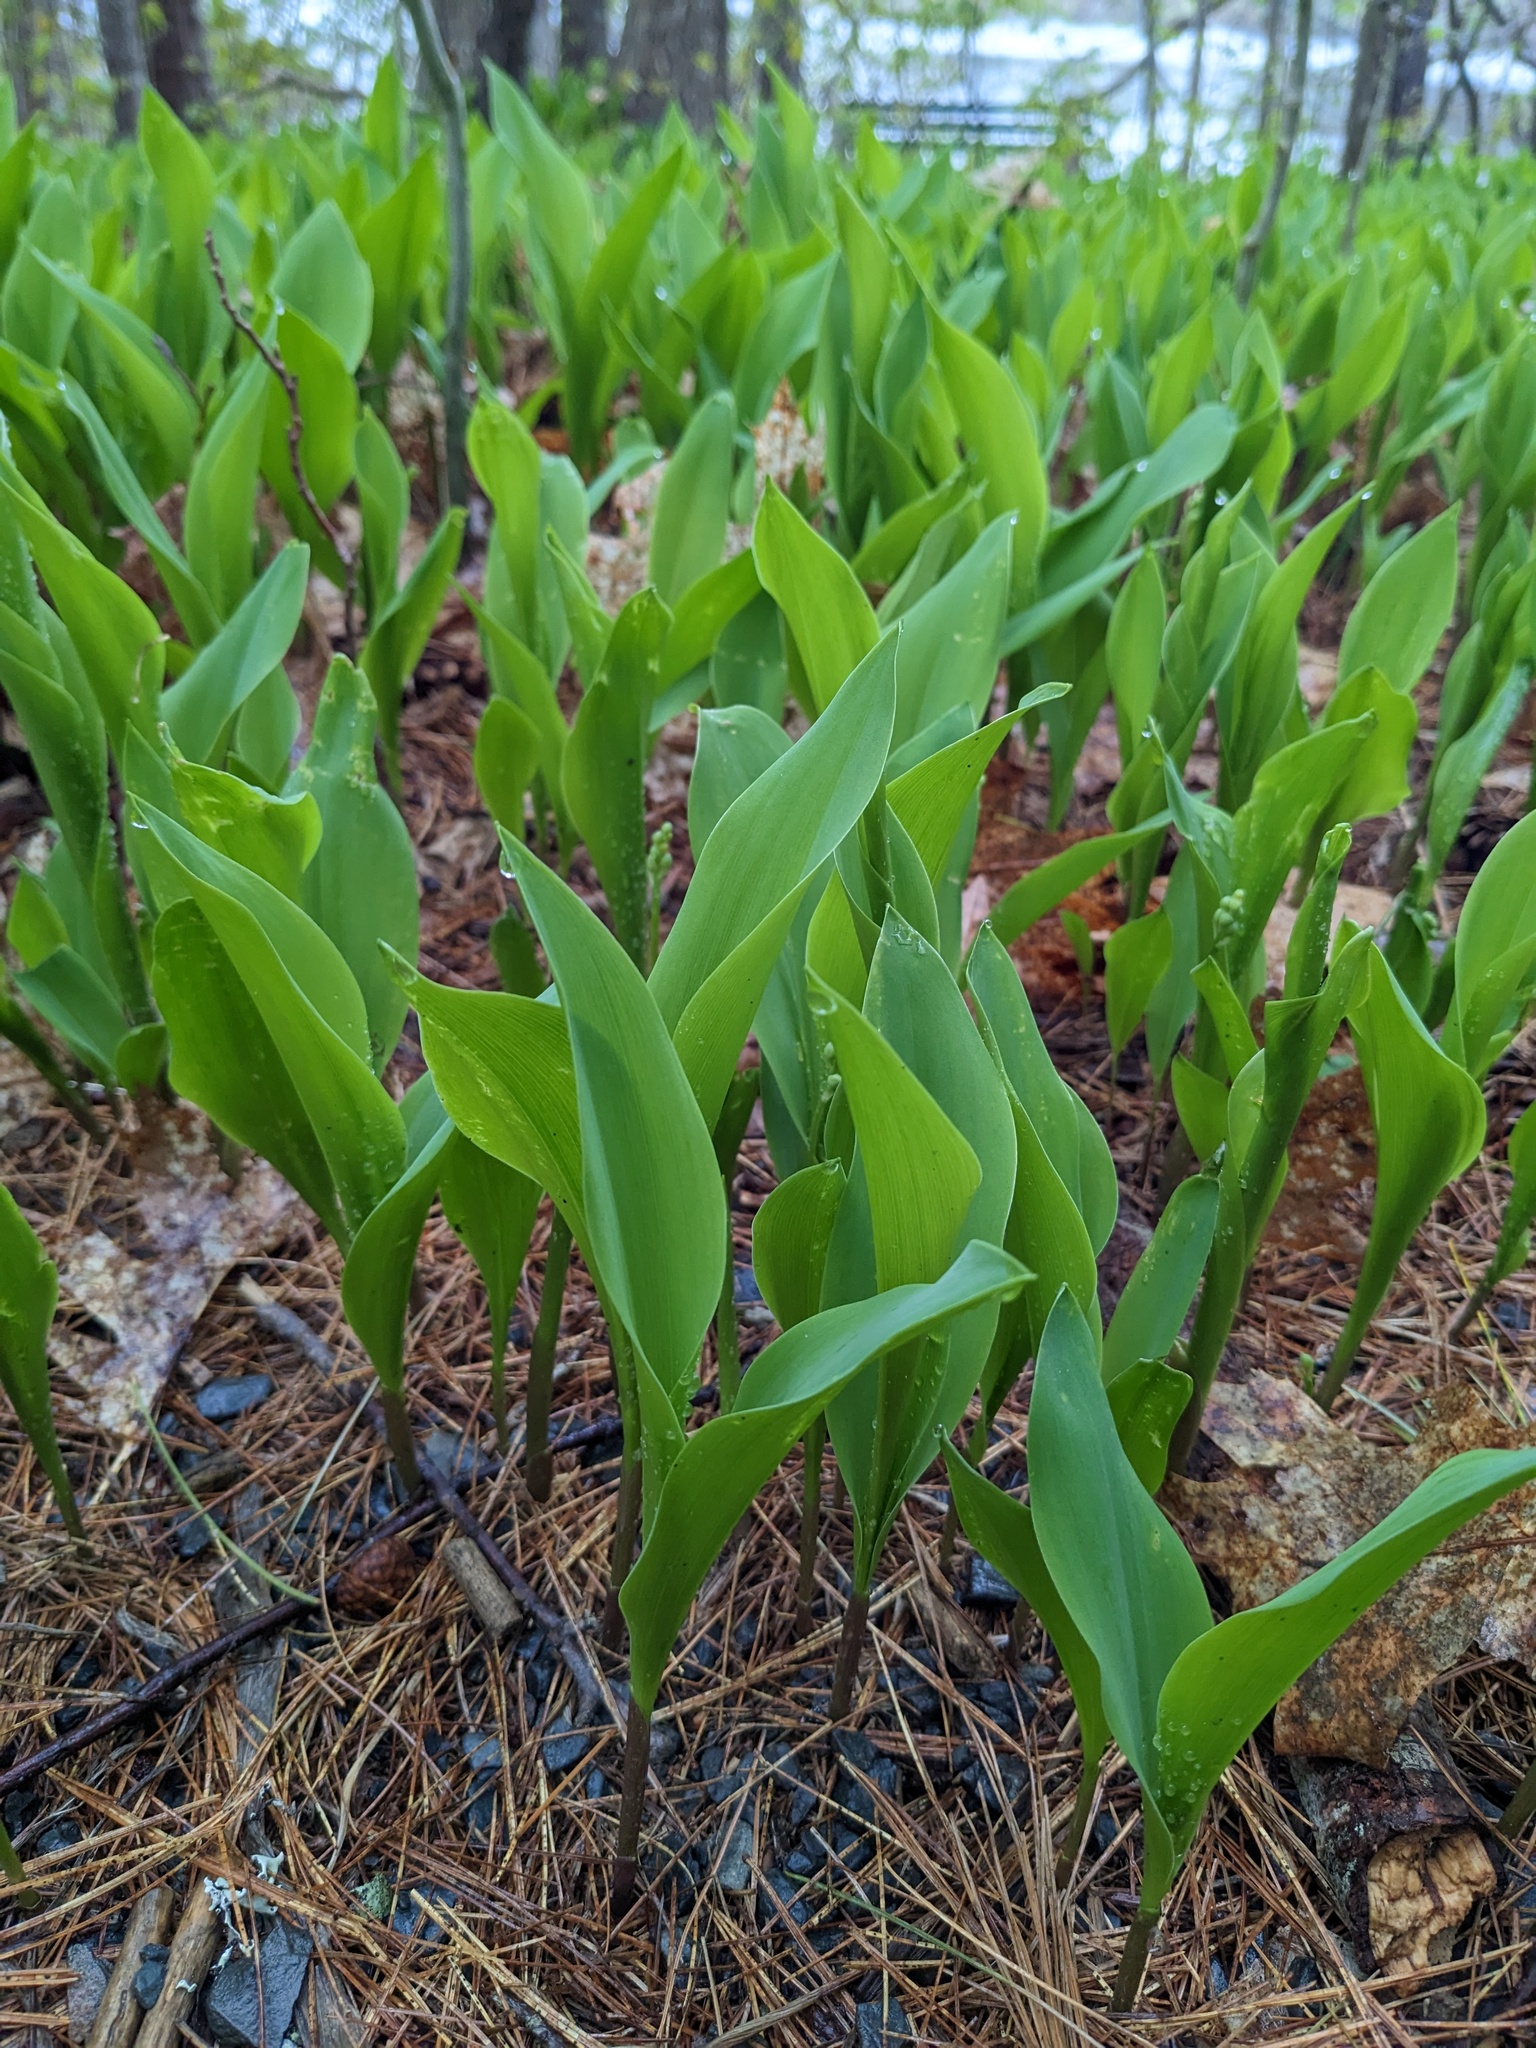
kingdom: Plantae
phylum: Tracheophyta
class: Liliopsida
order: Asparagales
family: Asparagaceae
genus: Convallaria
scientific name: Convallaria majalis
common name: Lily-of-the-valley
